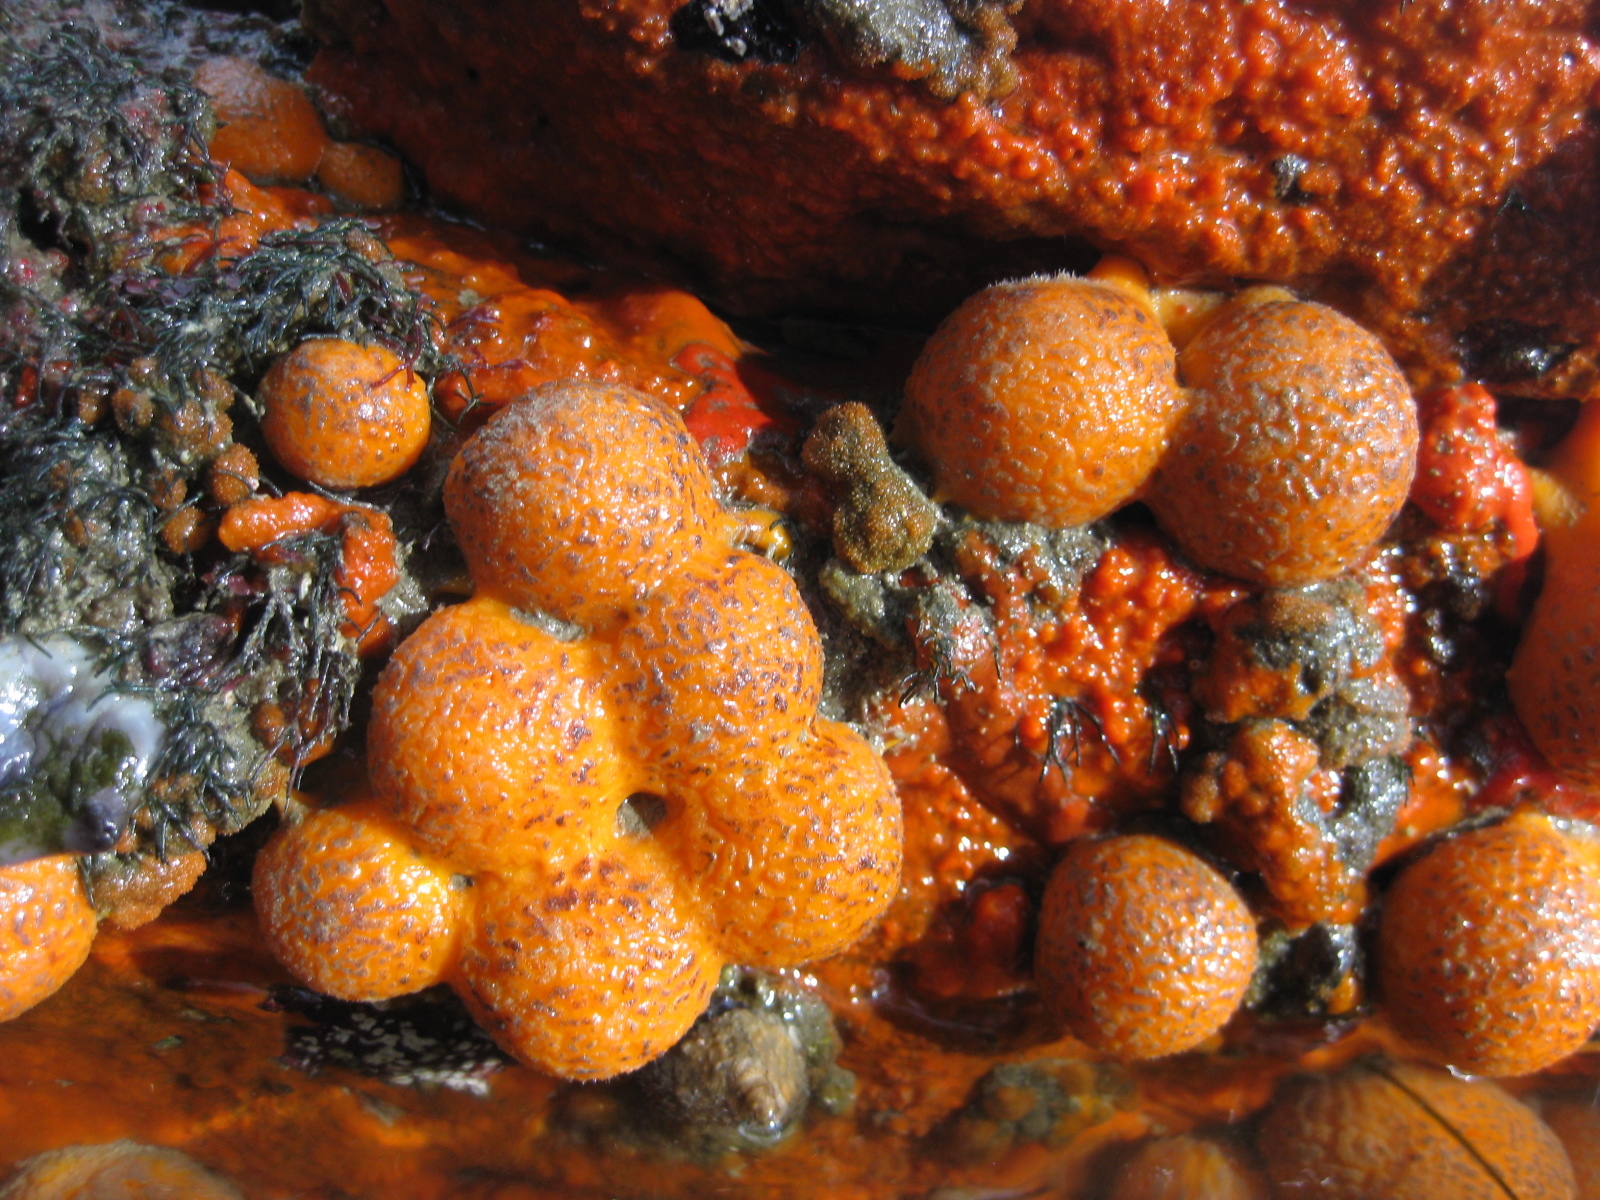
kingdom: Animalia
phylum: Porifera
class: Demospongiae
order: Tethyida
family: Tethyidae
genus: Tethya
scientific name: Tethya burtoni
